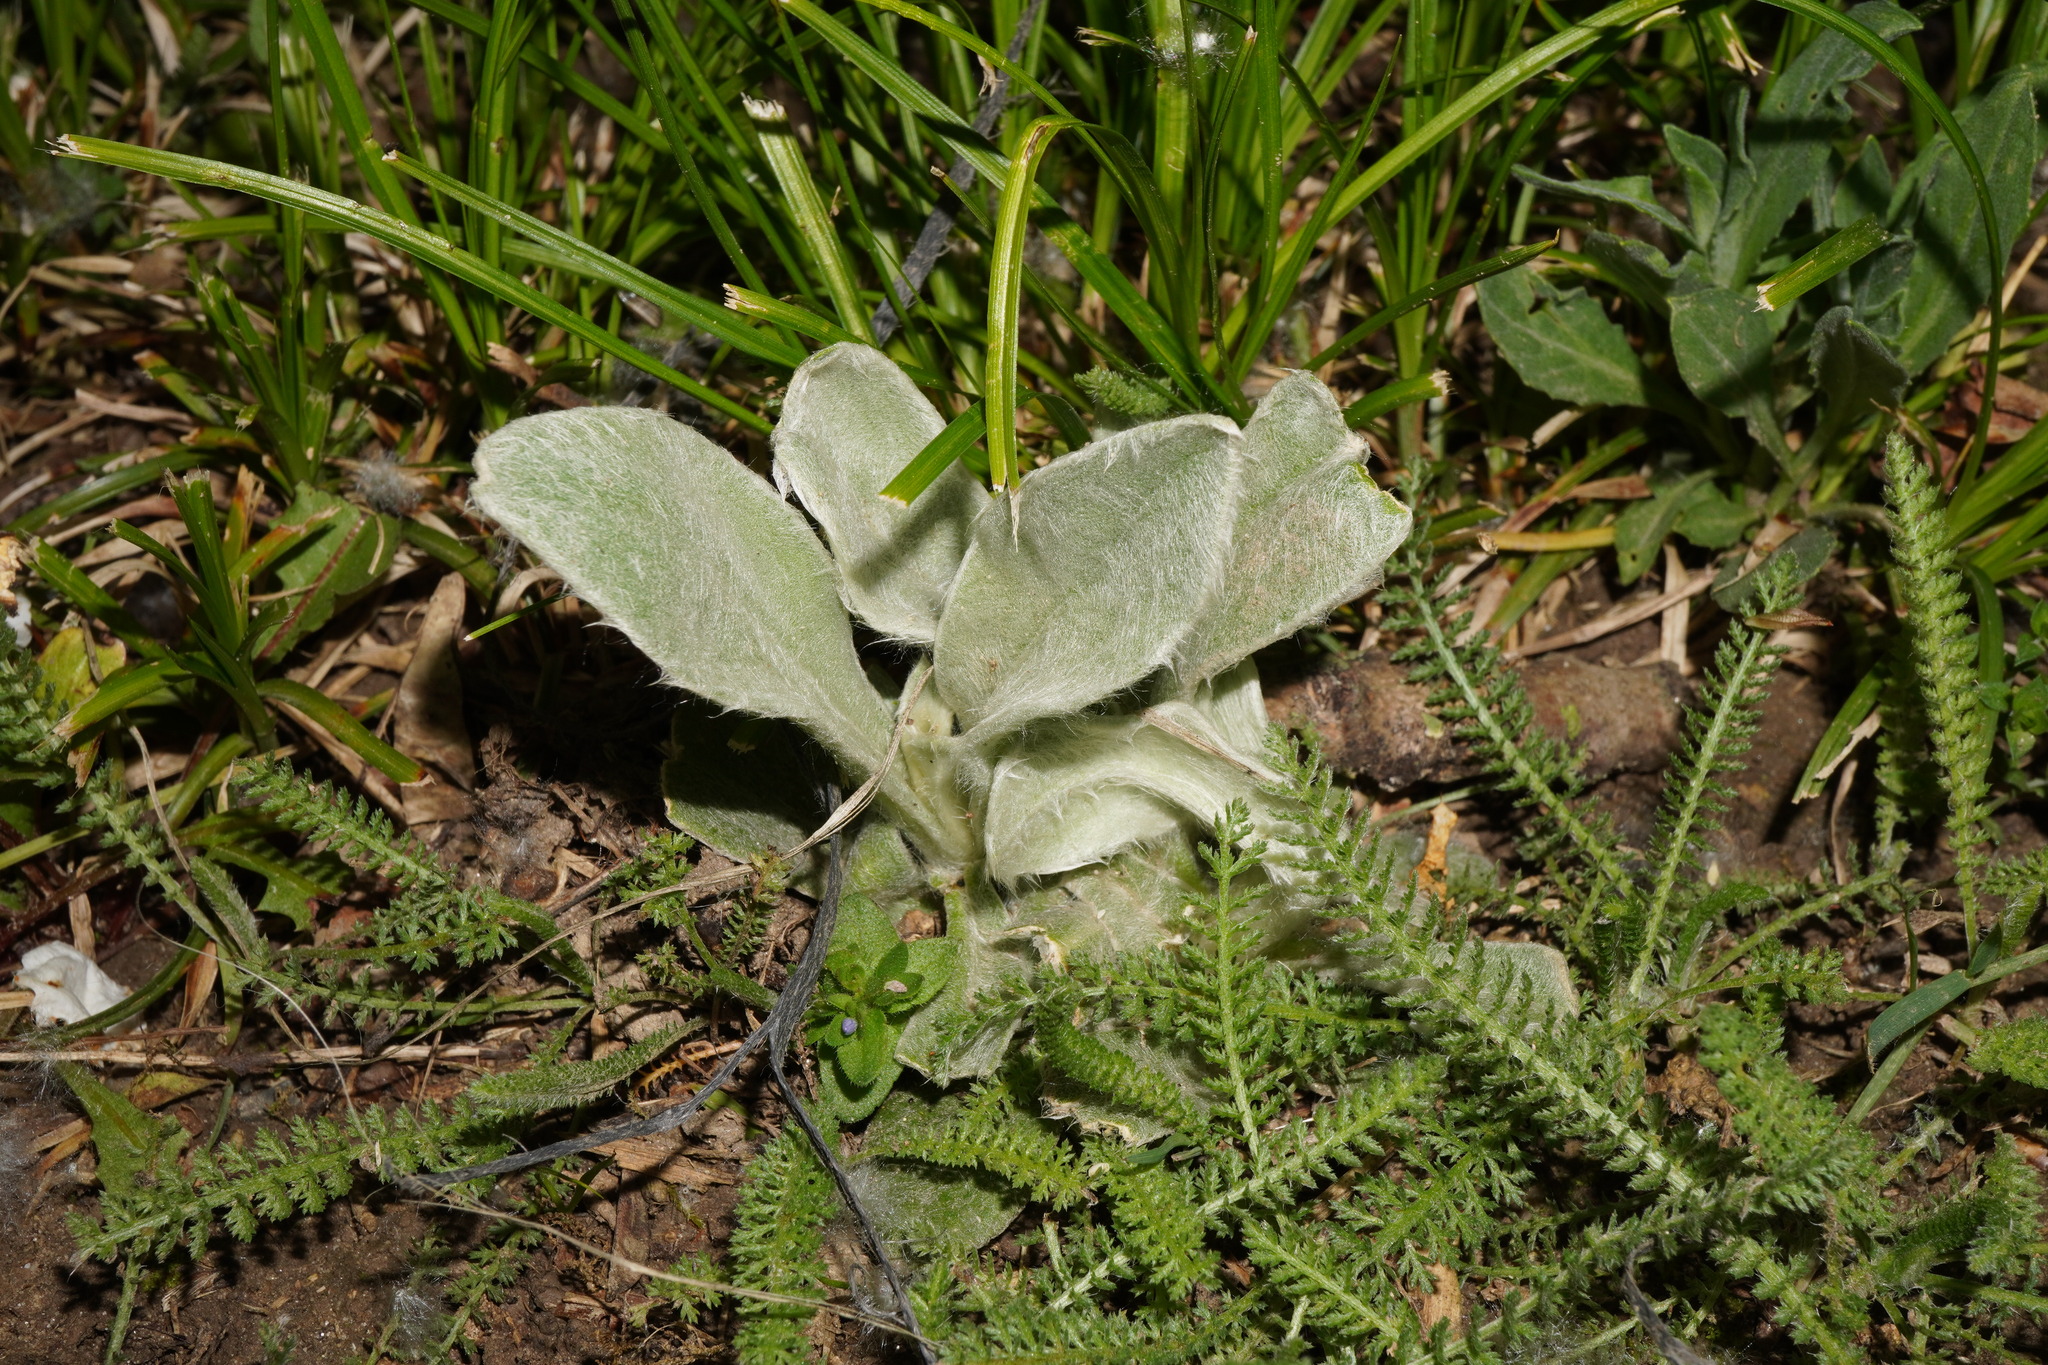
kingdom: Plantae
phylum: Tracheophyta
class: Magnoliopsida
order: Lamiales
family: Lamiaceae
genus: Stachys
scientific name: Stachys byzantina
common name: Lamb's-ear
